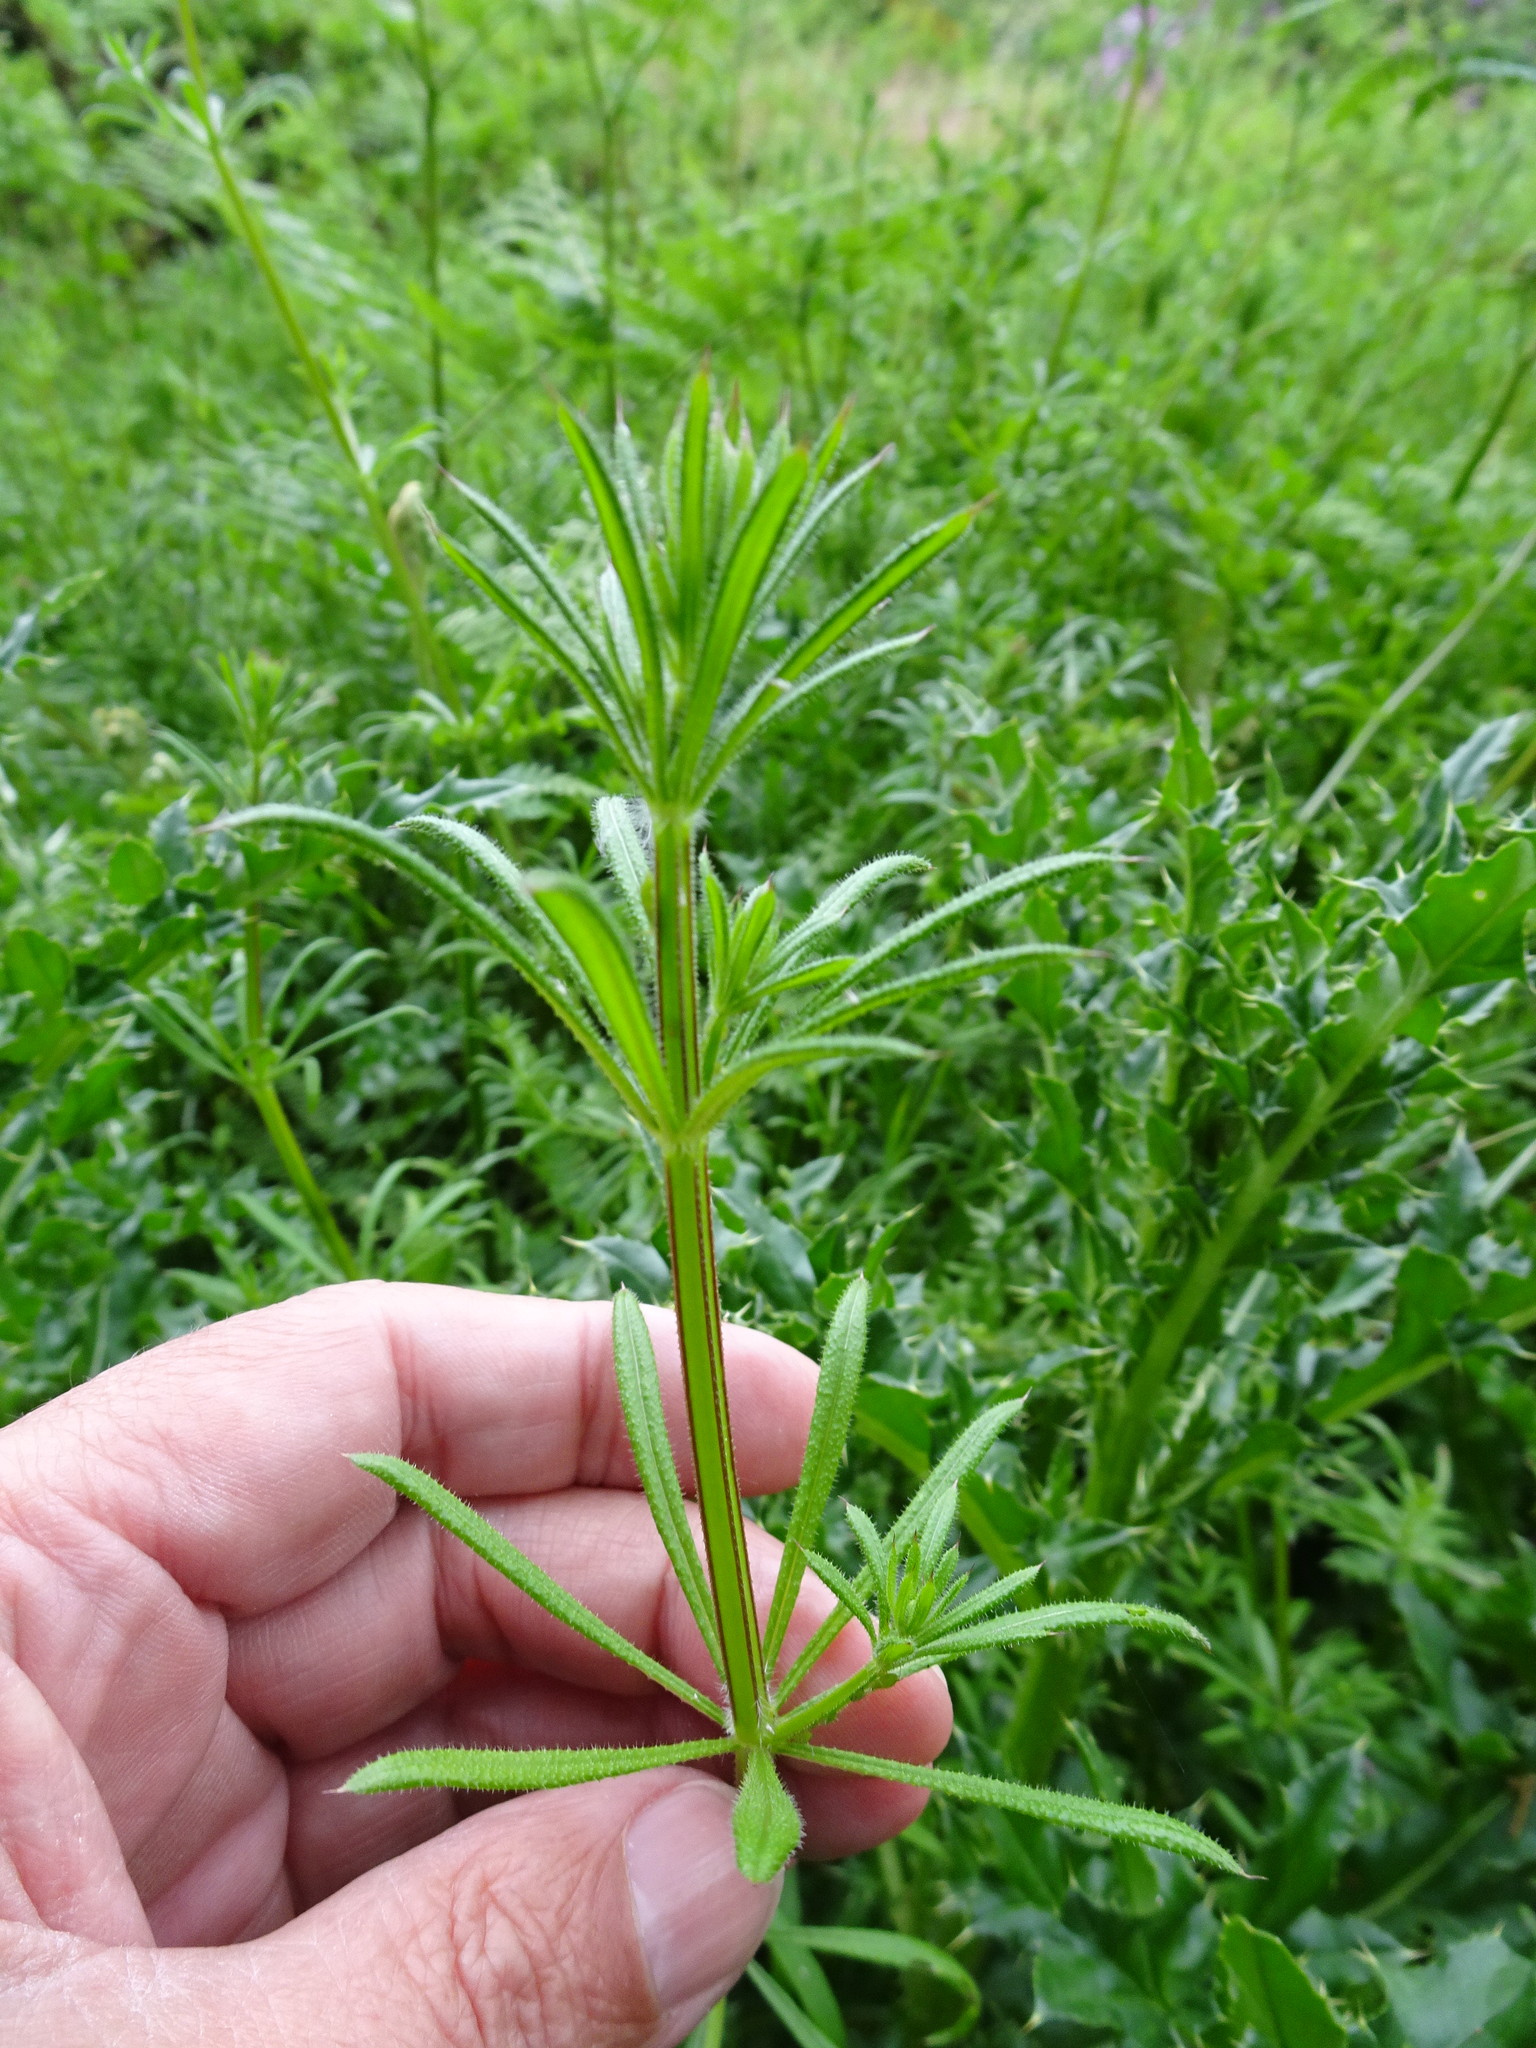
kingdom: Plantae
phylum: Tracheophyta
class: Magnoliopsida
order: Gentianales
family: Rubiaceae
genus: Galium
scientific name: Galium aparine
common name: Cleavers
